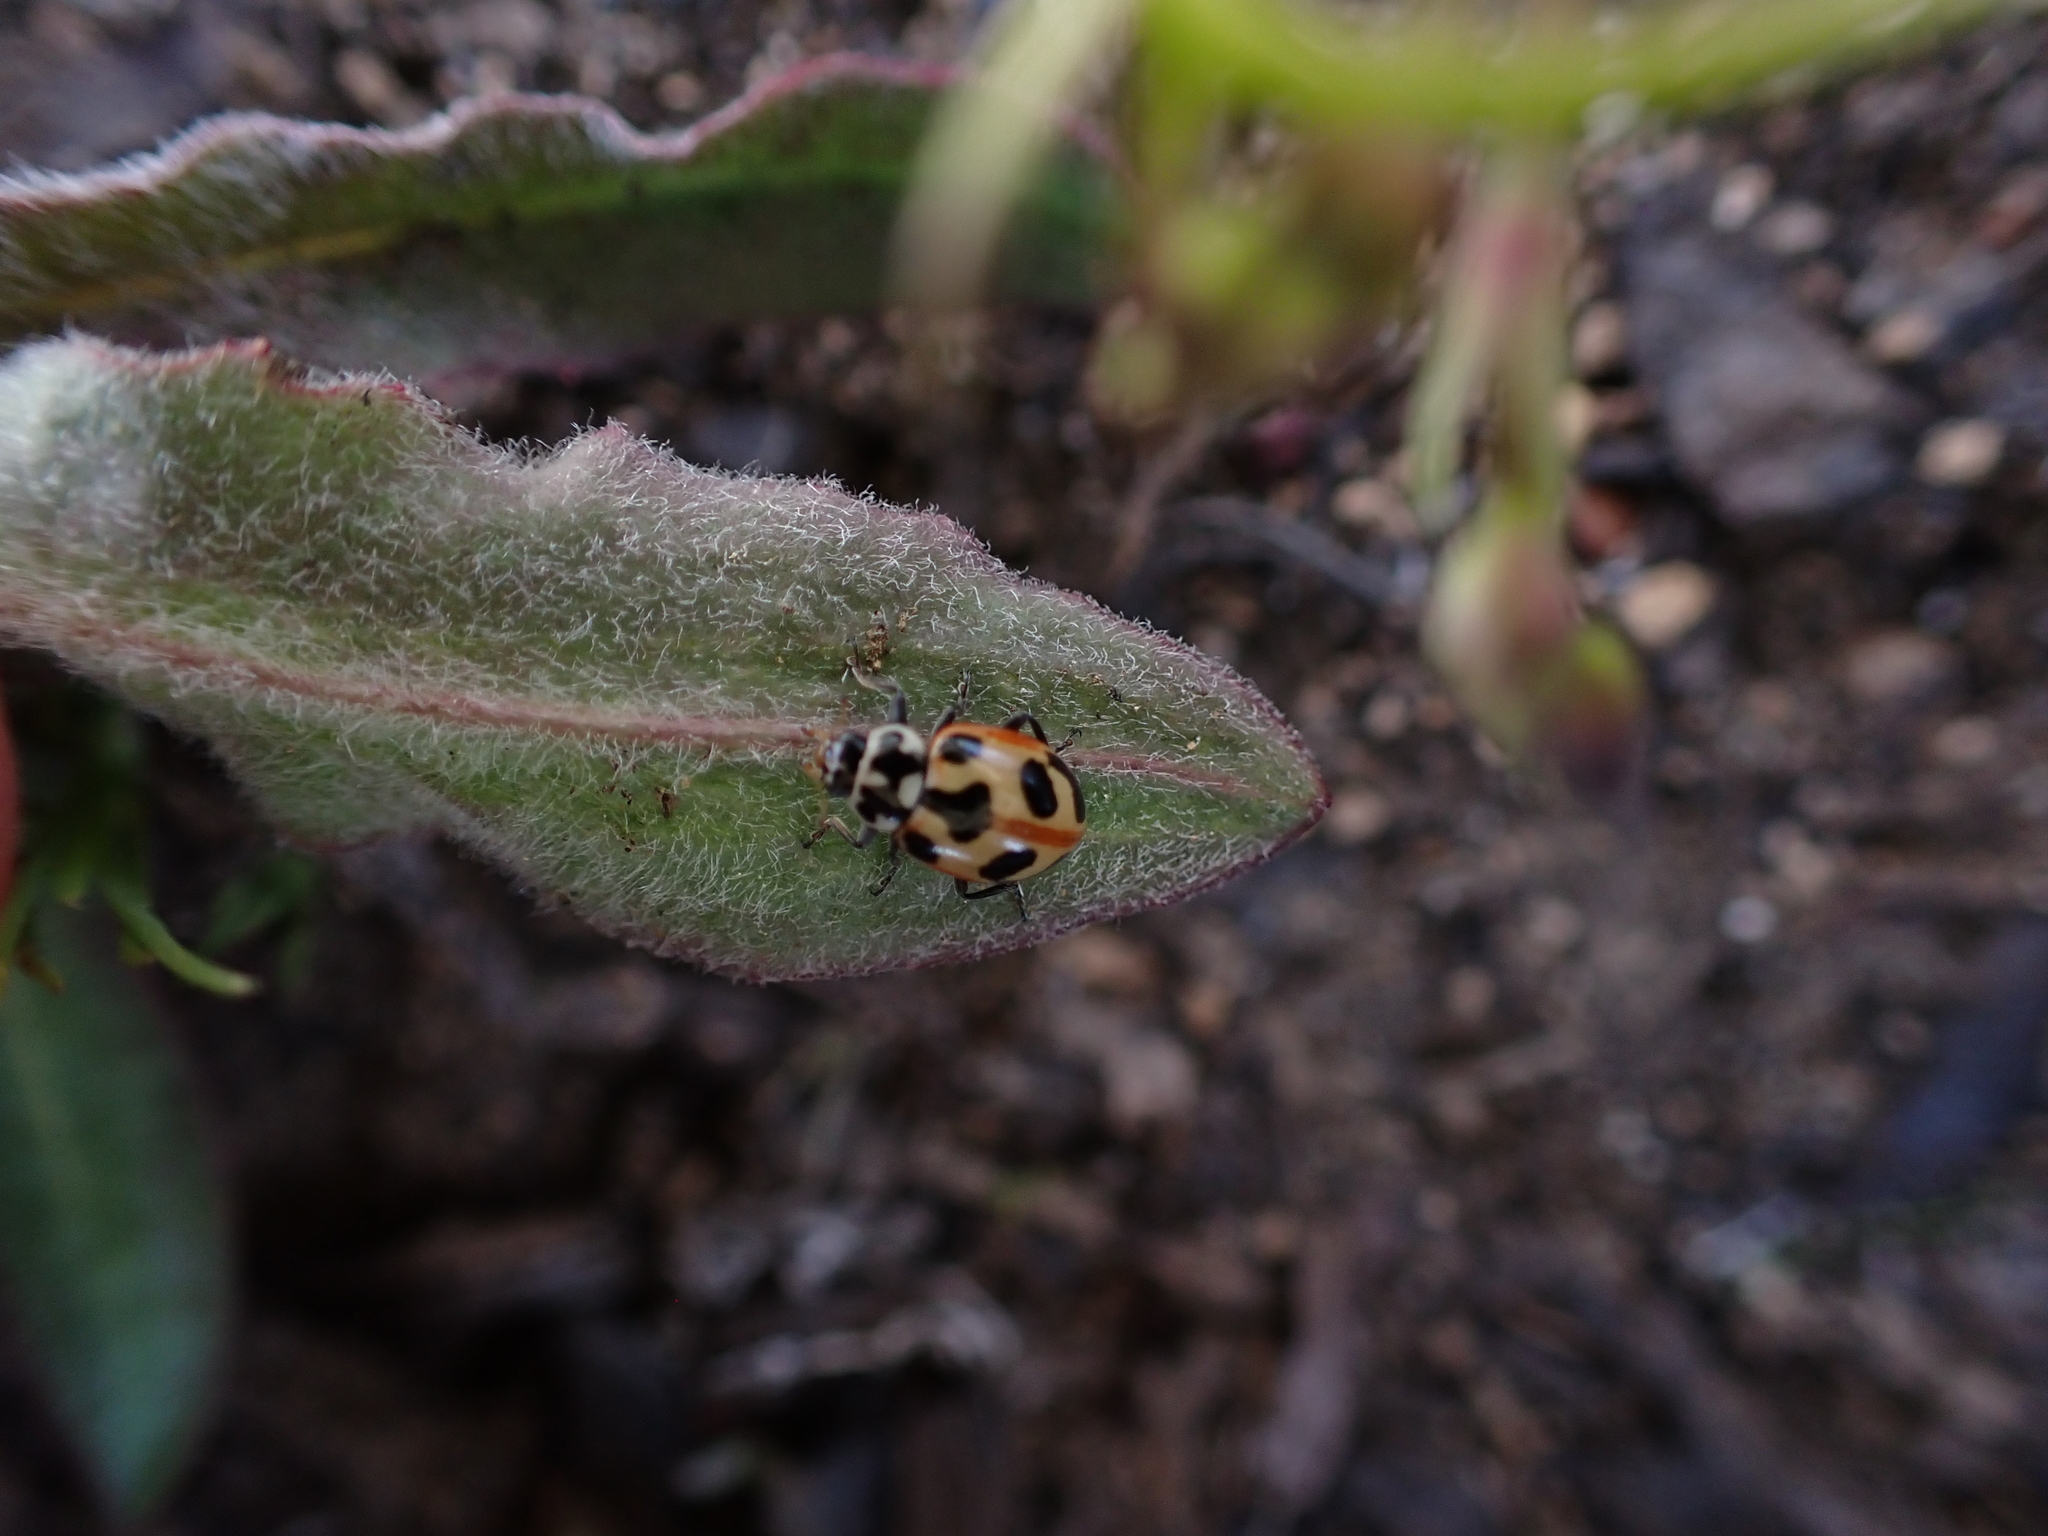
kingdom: Animalia
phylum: Arthropoda
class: Insecta
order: Coleoptera
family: Coccinellidae
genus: Hippodamia
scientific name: Hippodamia parenthesis
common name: Parenthesis lady beetle
